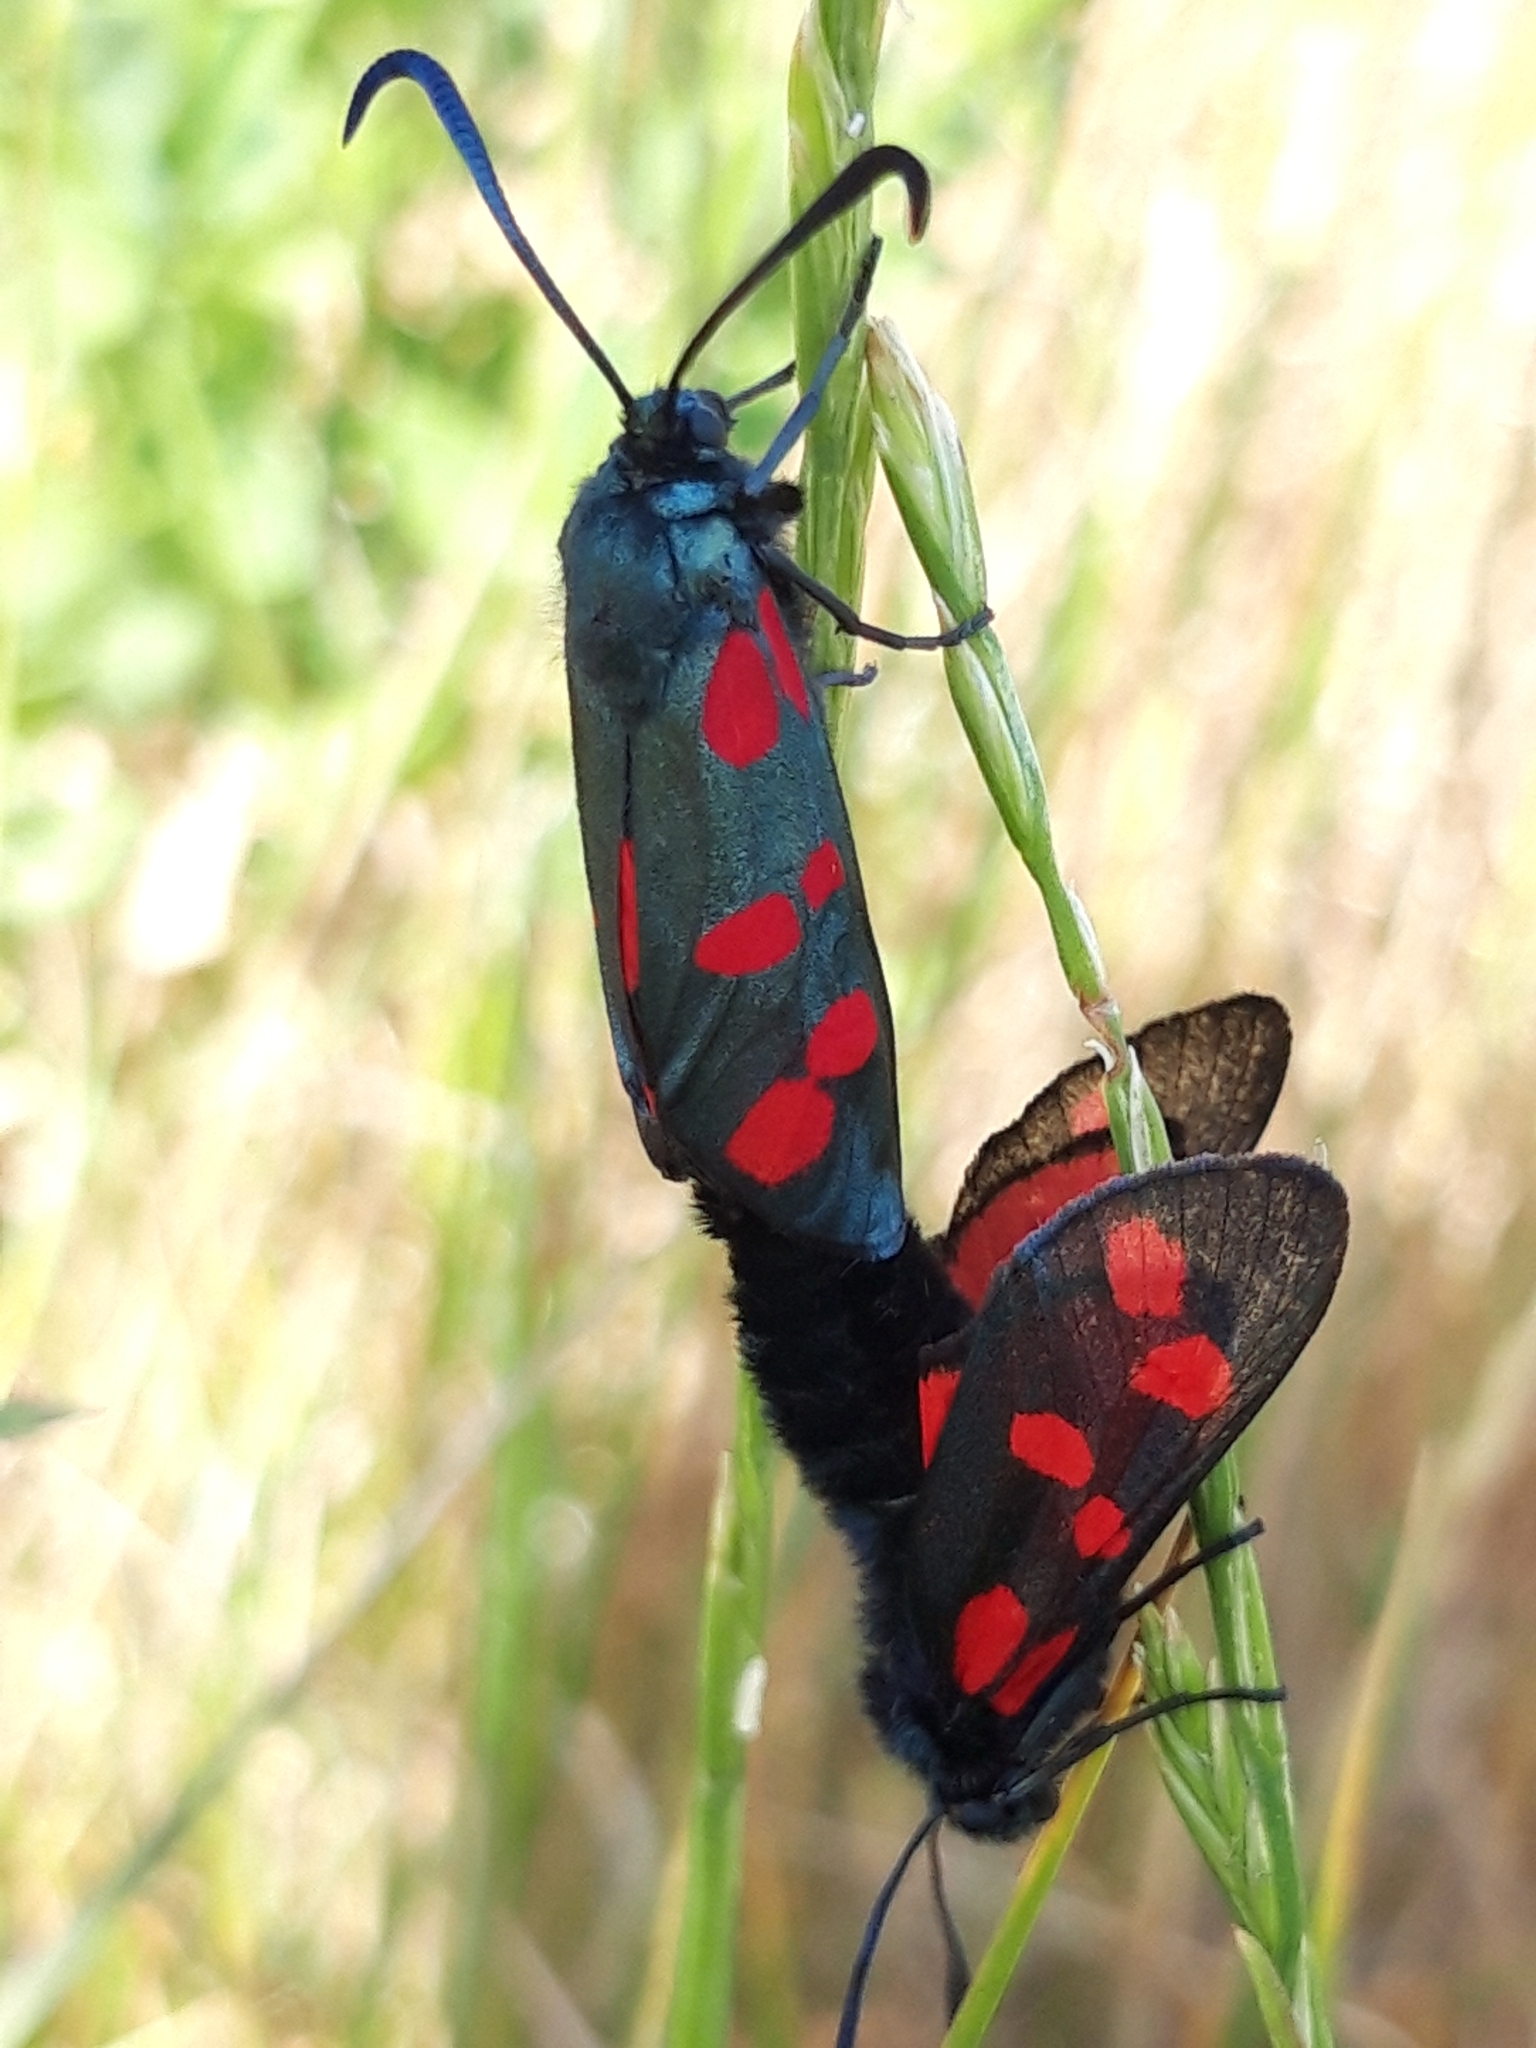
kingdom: Animalia
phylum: Arthropoda
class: Insecta
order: Lepidoptera
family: Zygaenidae
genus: Zygaena
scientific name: Zygaena filipendulae
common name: Six-spot burnet
